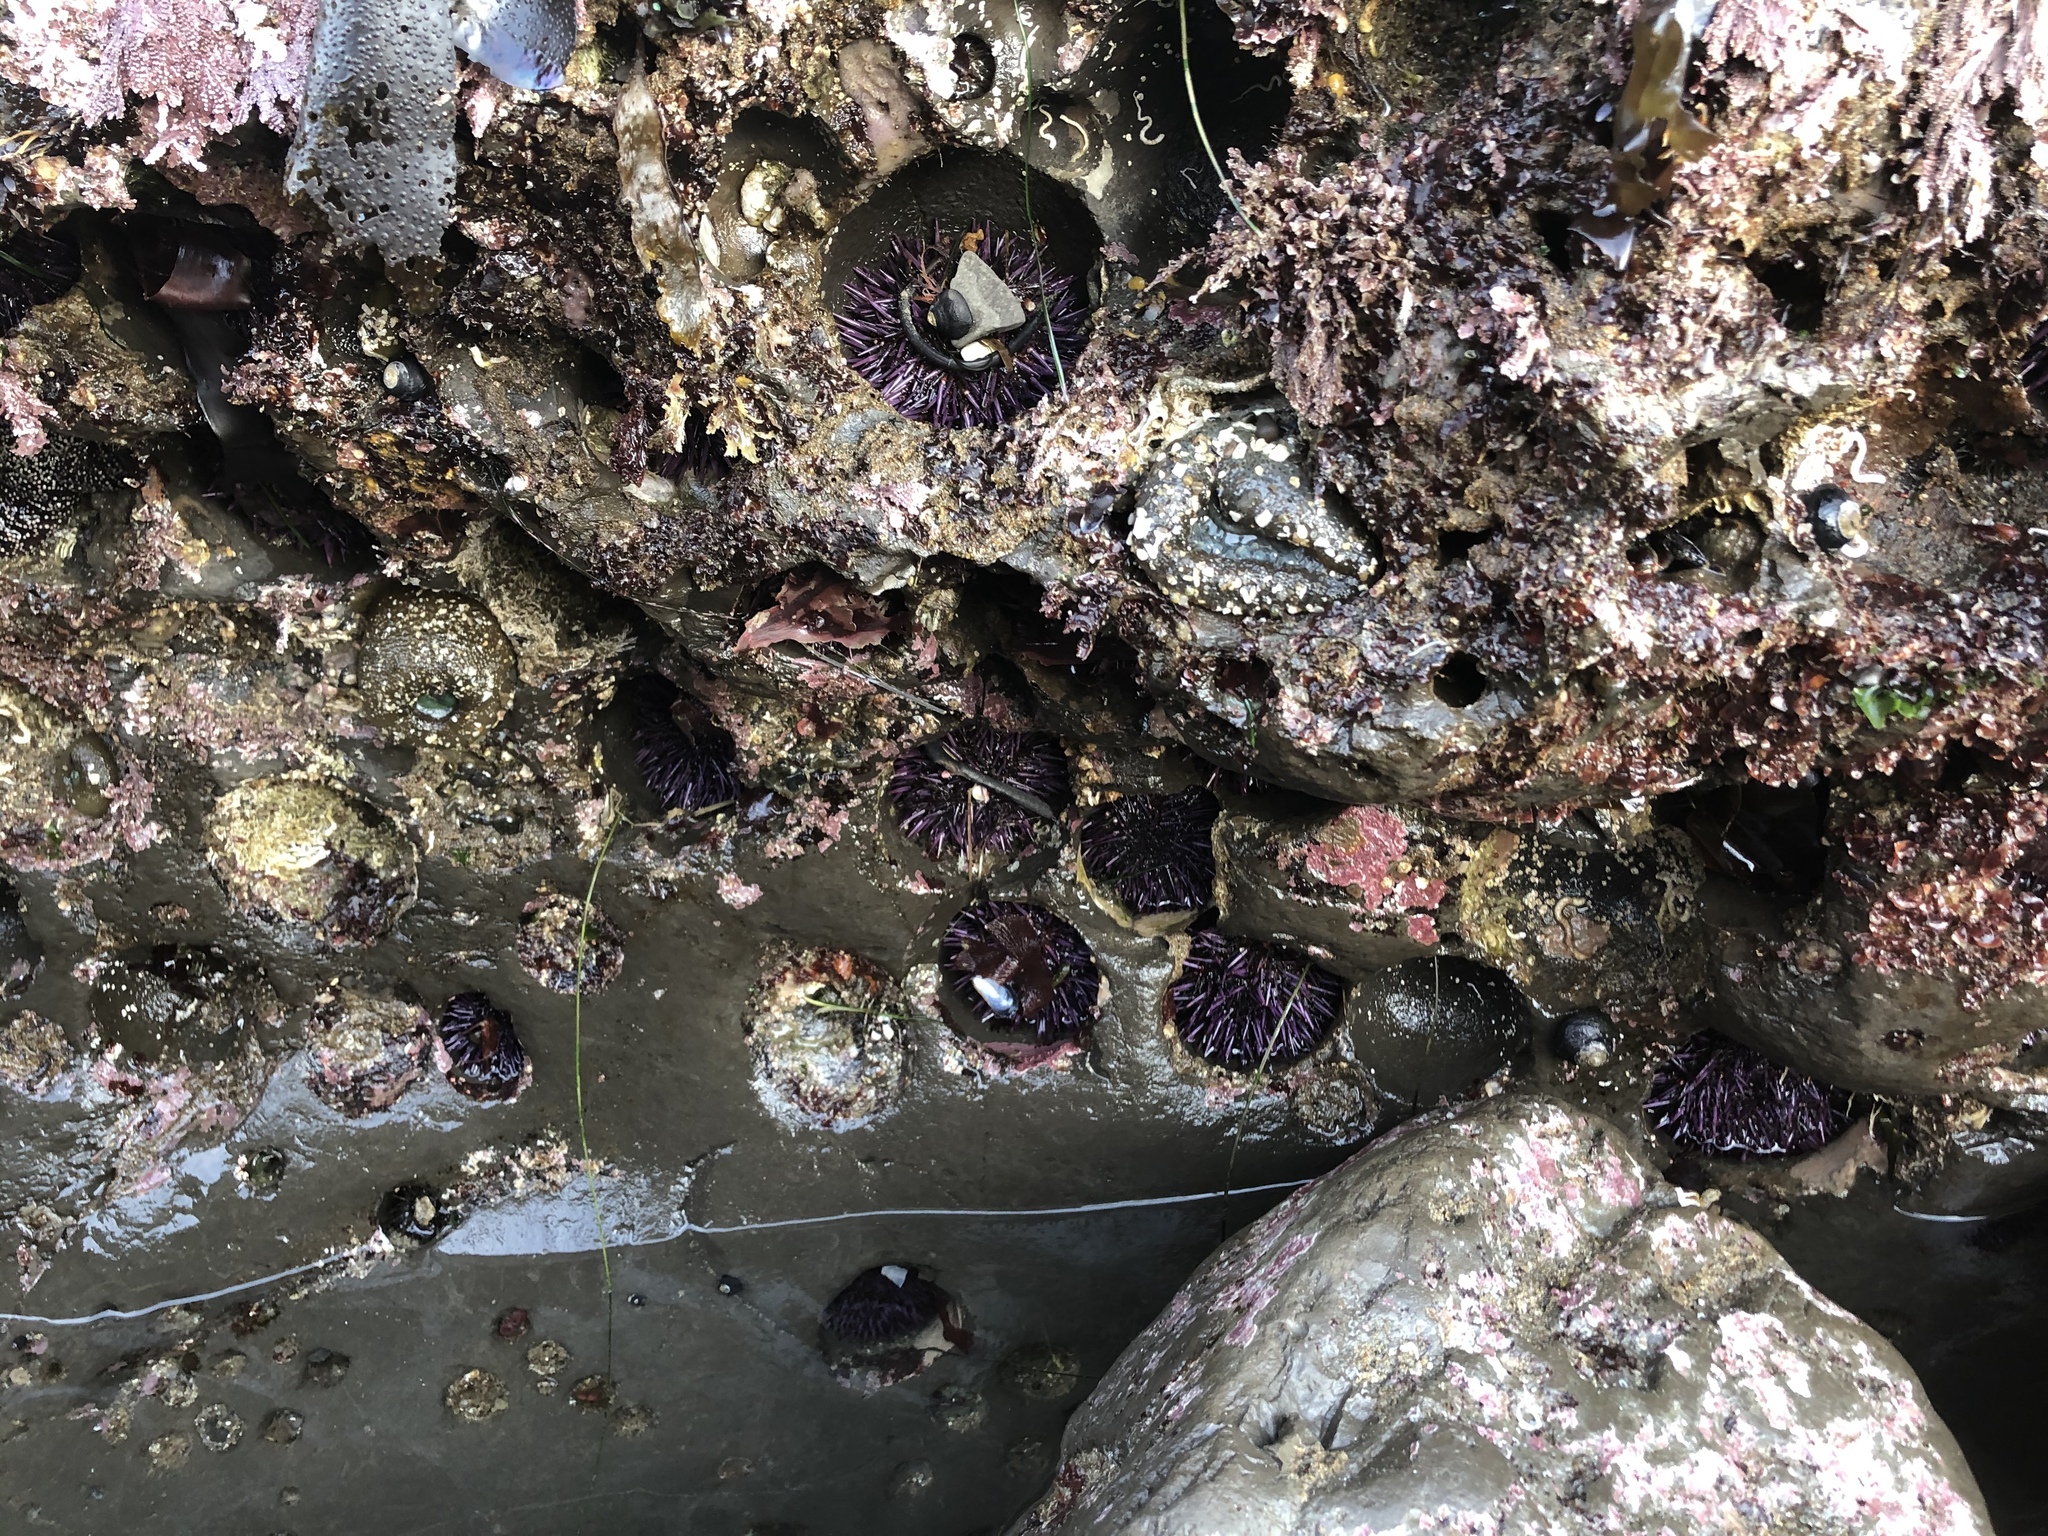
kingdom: Animalia
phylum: Echinodermata
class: Echinoidea
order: Camarodonta
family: Strongylocentrotidae
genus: Strongylocentrotus
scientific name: Strongylocentrotus purpuratus
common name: Purple sea urchin
